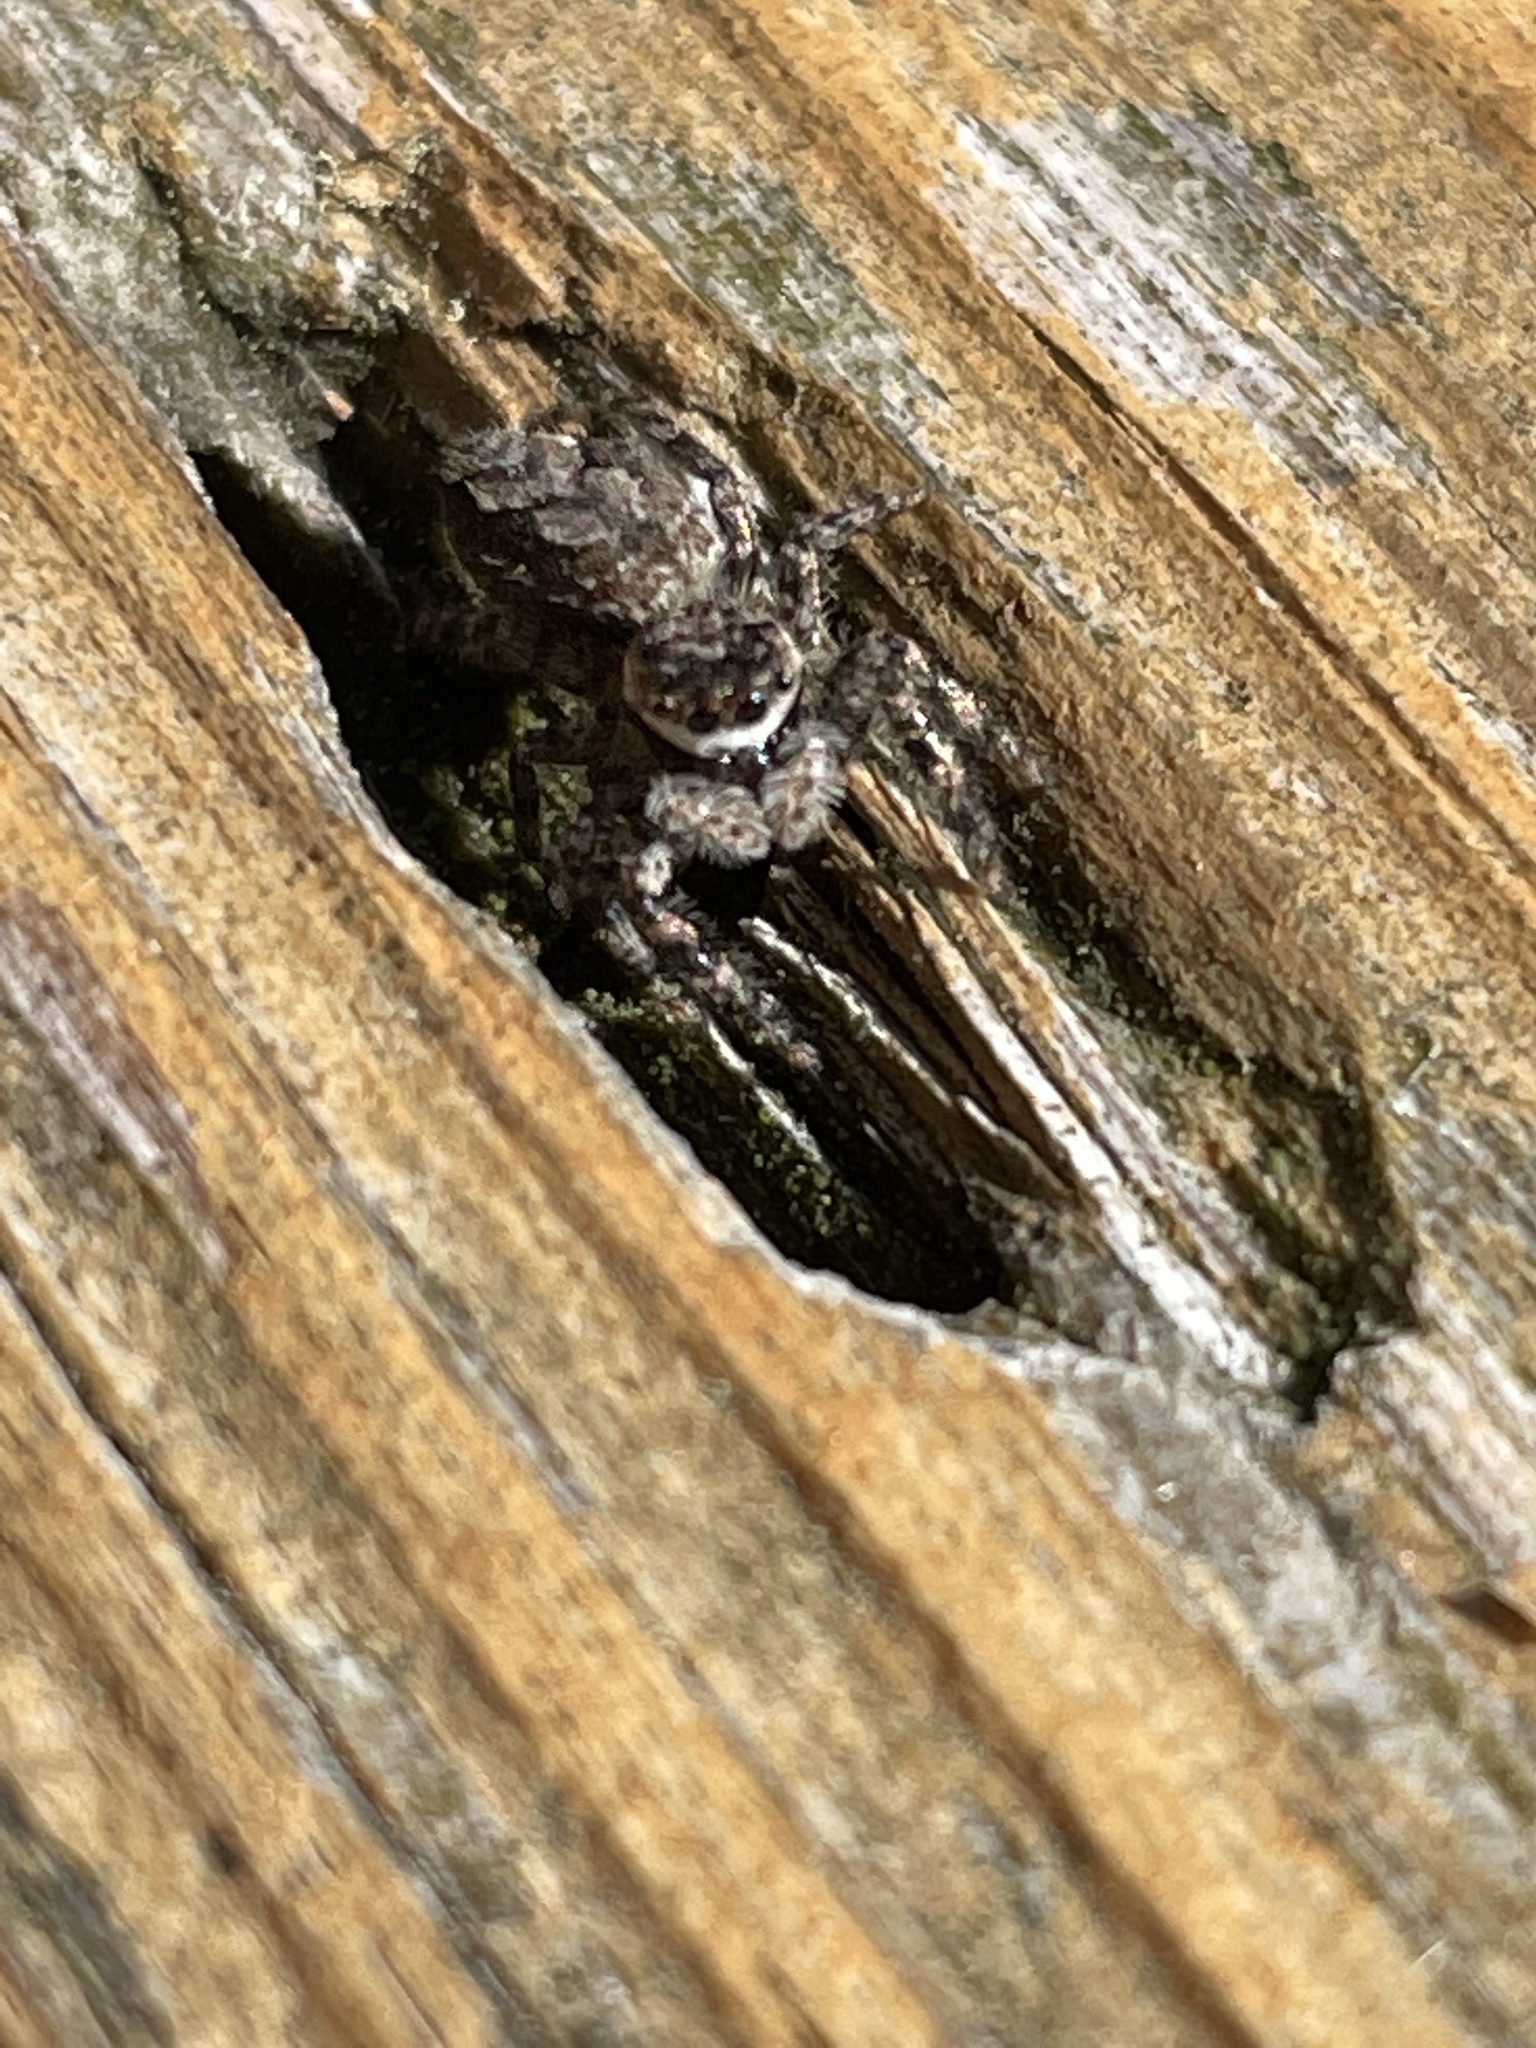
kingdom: Animalia
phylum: Arthropoda
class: Arachnida
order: Araneae
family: Salticidae
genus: Platycryptus
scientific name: Platycryptus undatus
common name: Tan jumping spider
